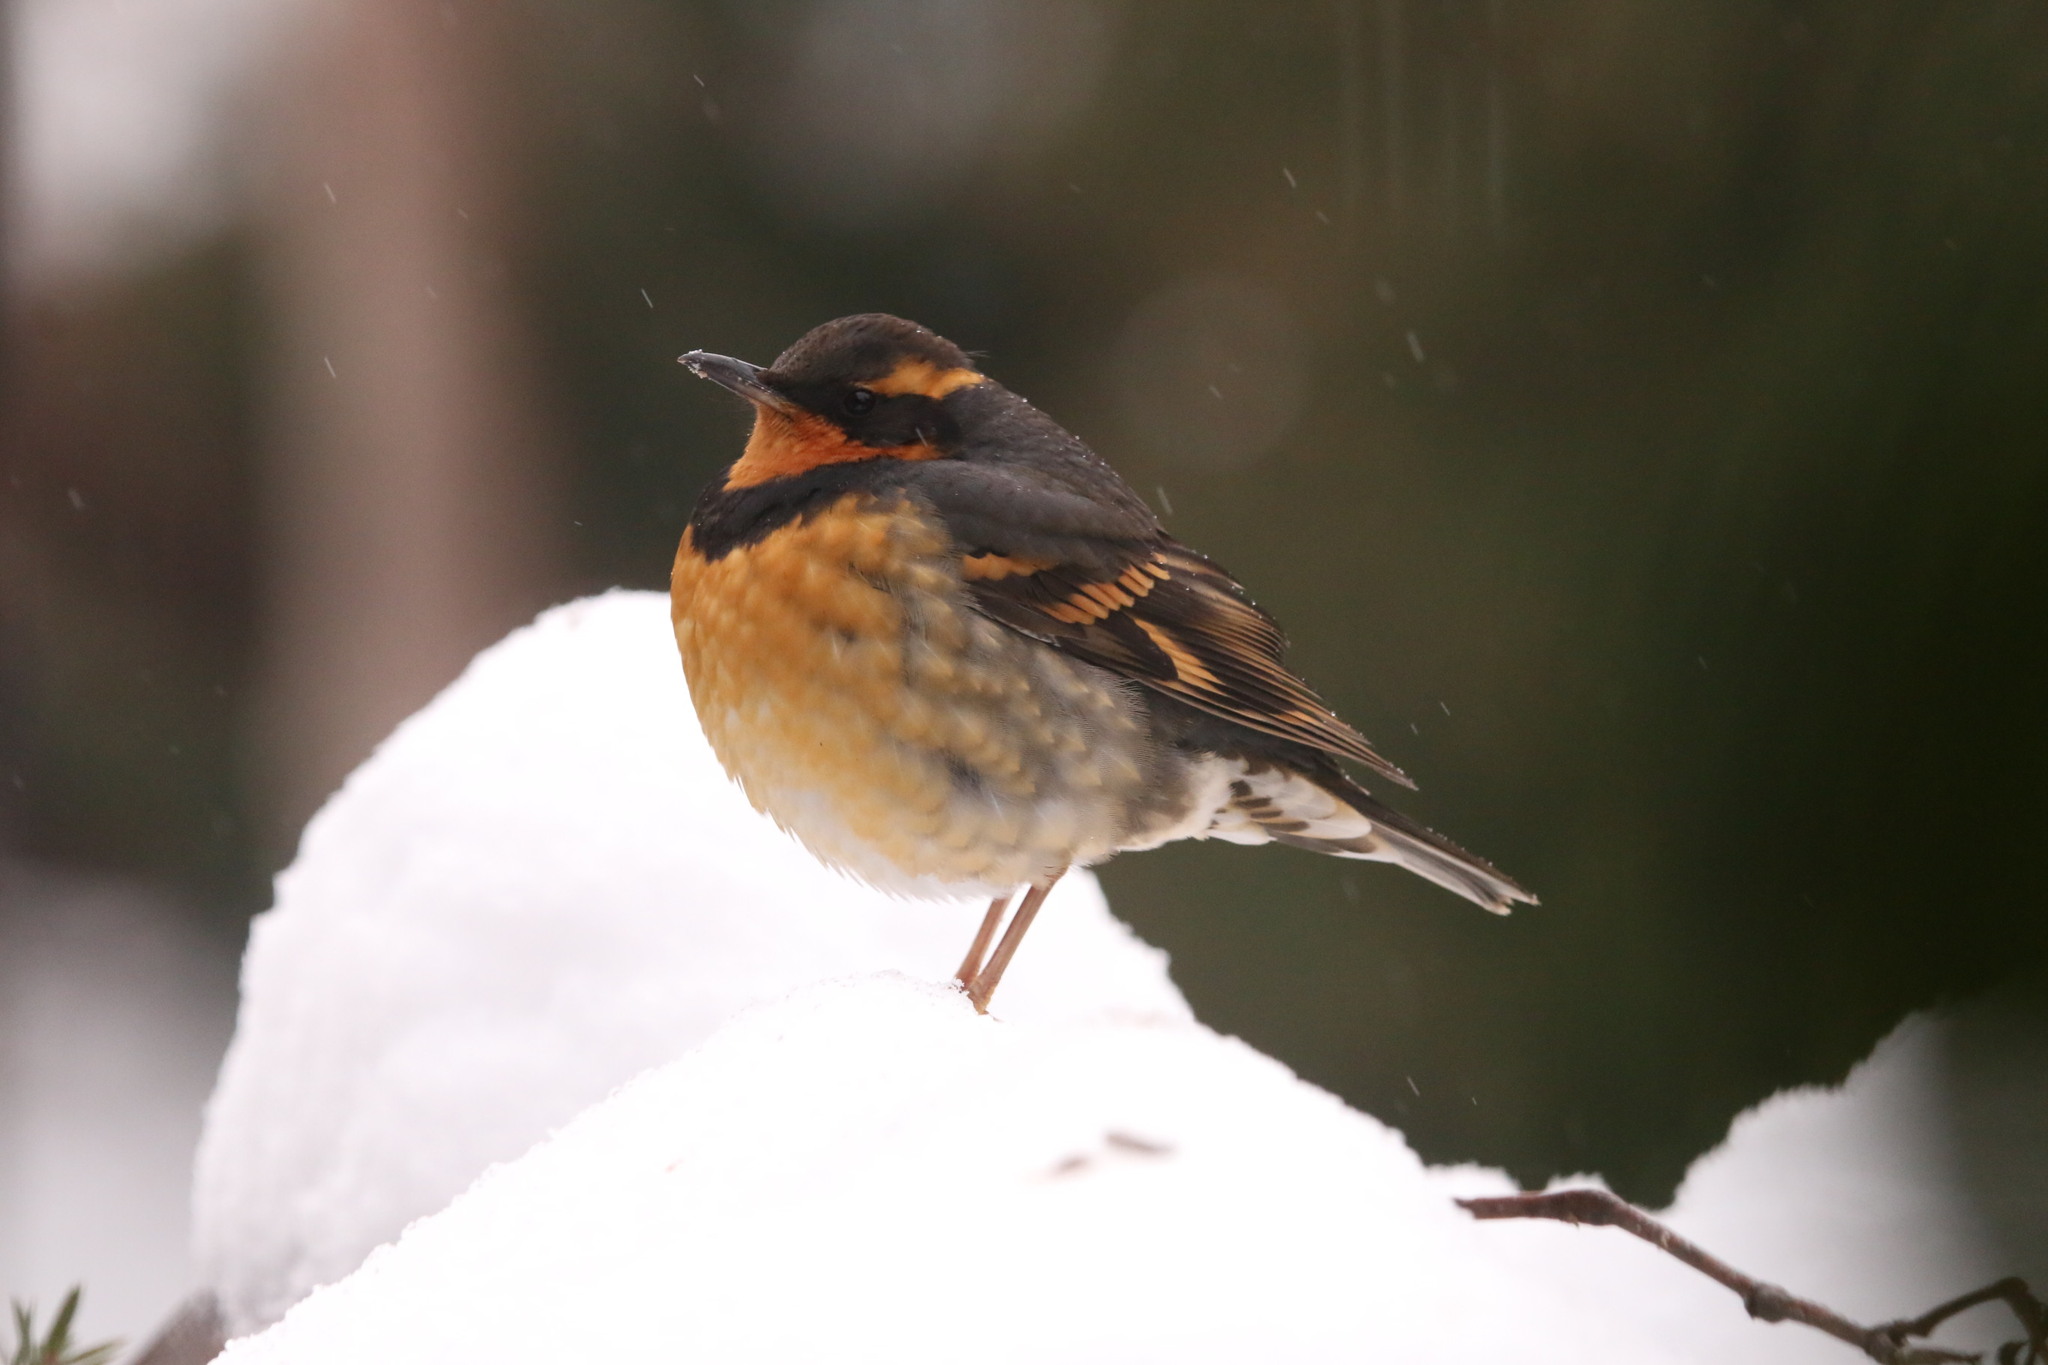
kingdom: Animalia
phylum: Chordata
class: Aves
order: Passeriformes
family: Turdidae
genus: Ixoreus
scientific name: Ixoreus naevius
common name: Varied thrush
